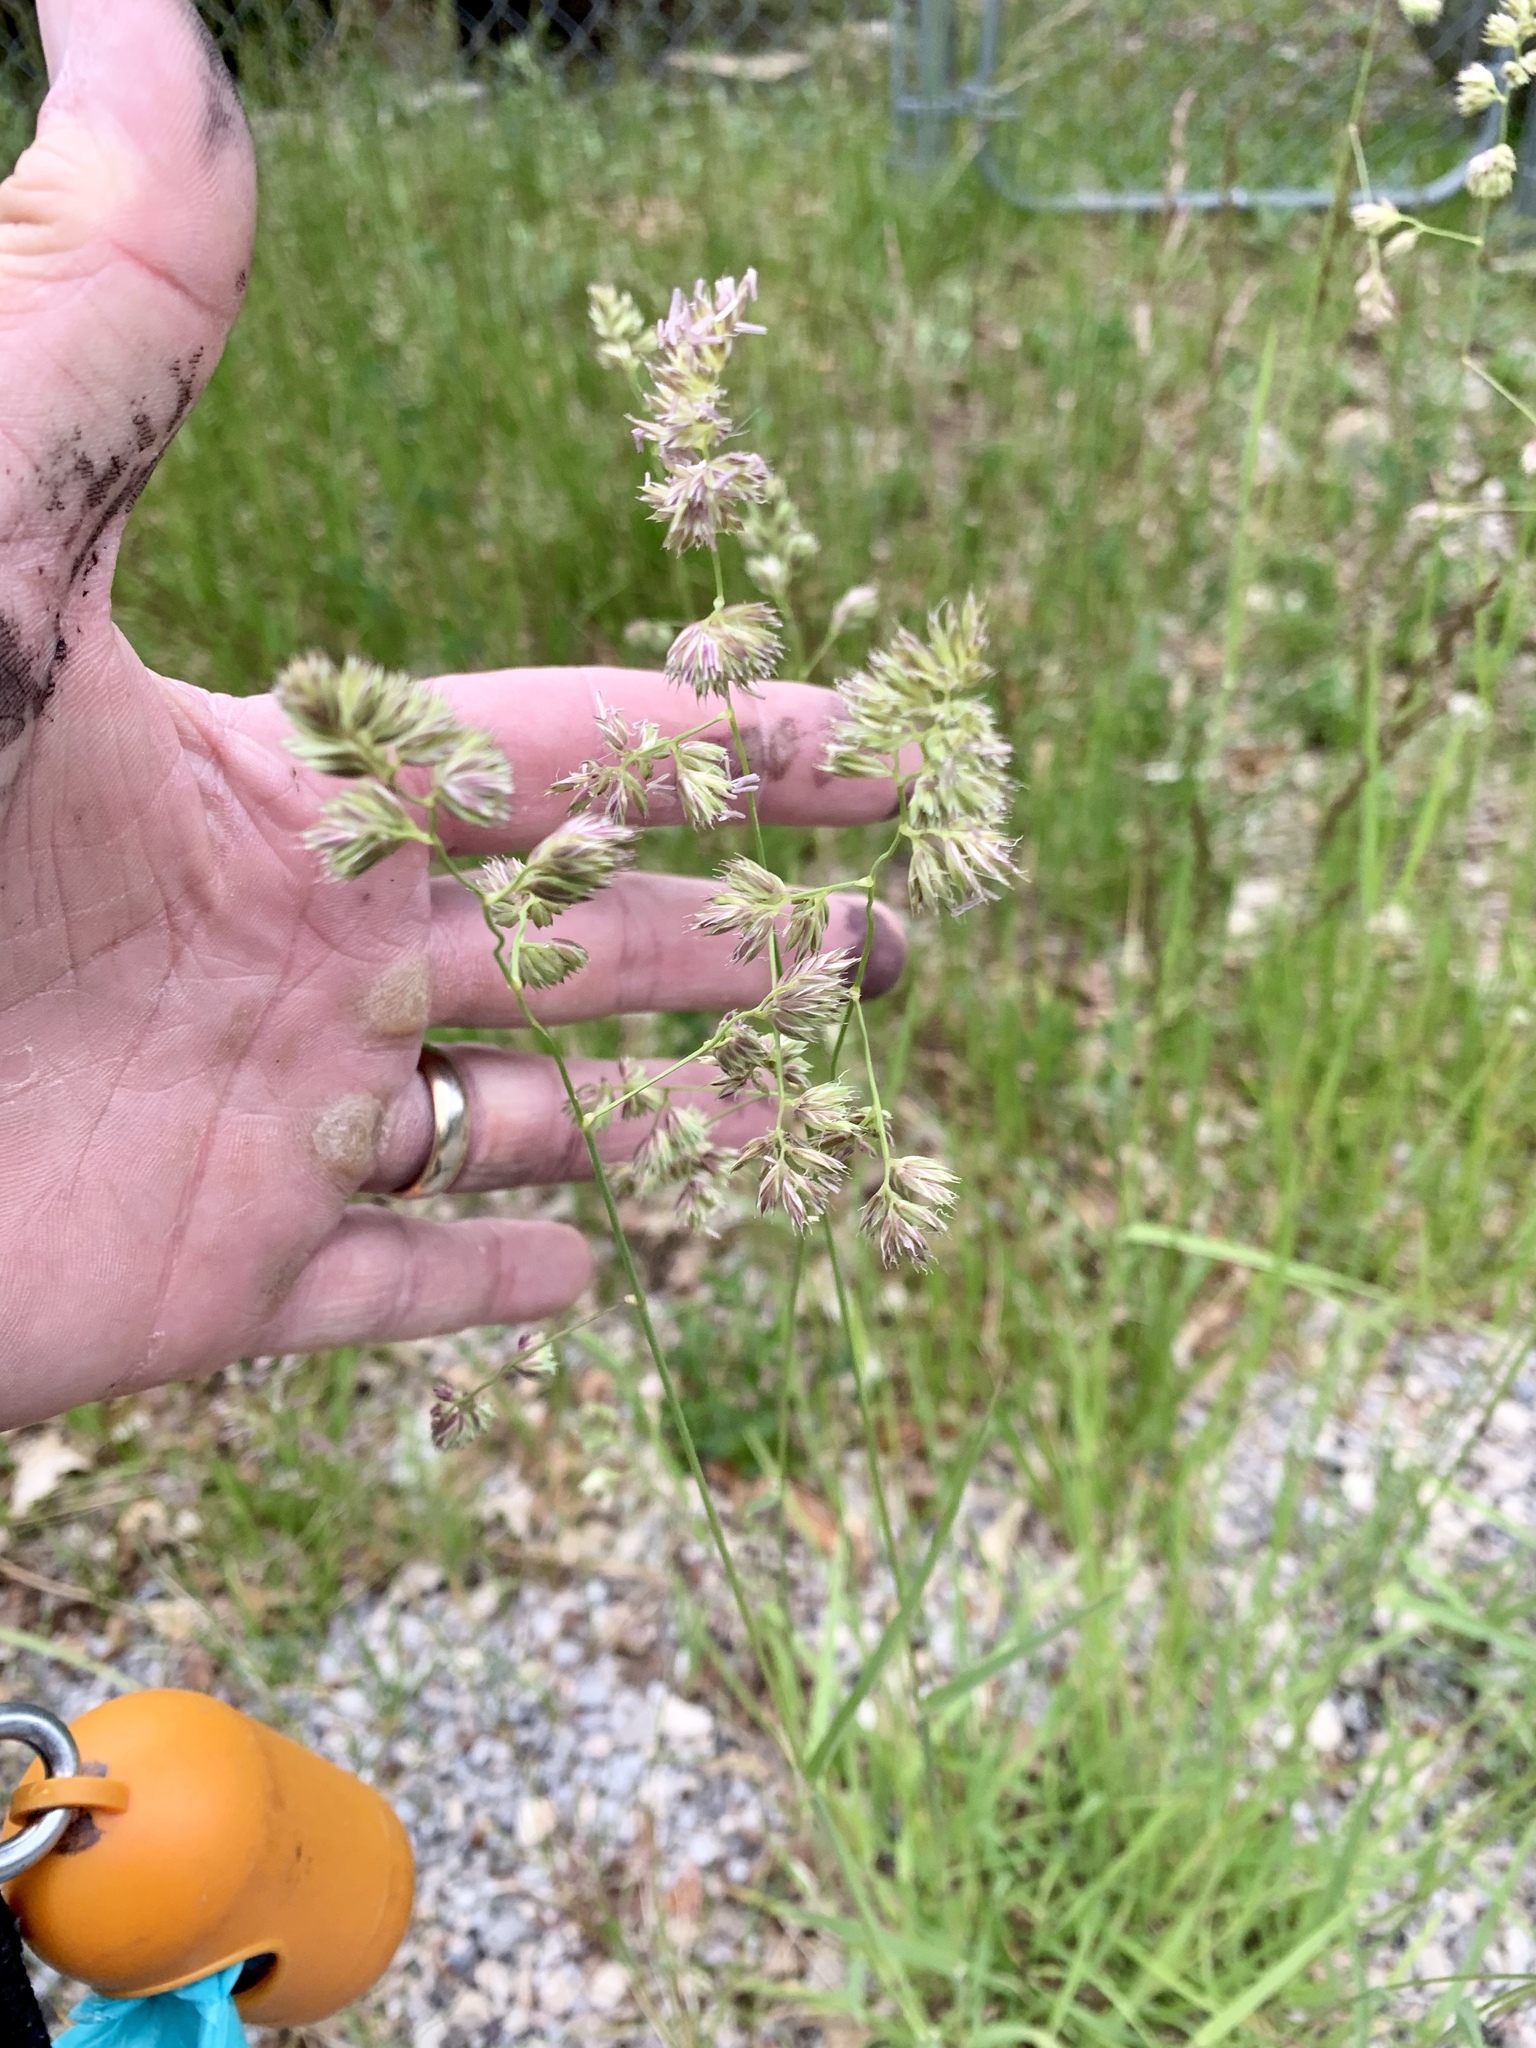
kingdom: Plantae
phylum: Tracheophyta
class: Liliopsida
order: Poales
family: Poaceae
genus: Dactylis
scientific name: Dactylis glomerata
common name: Orchardgrass
